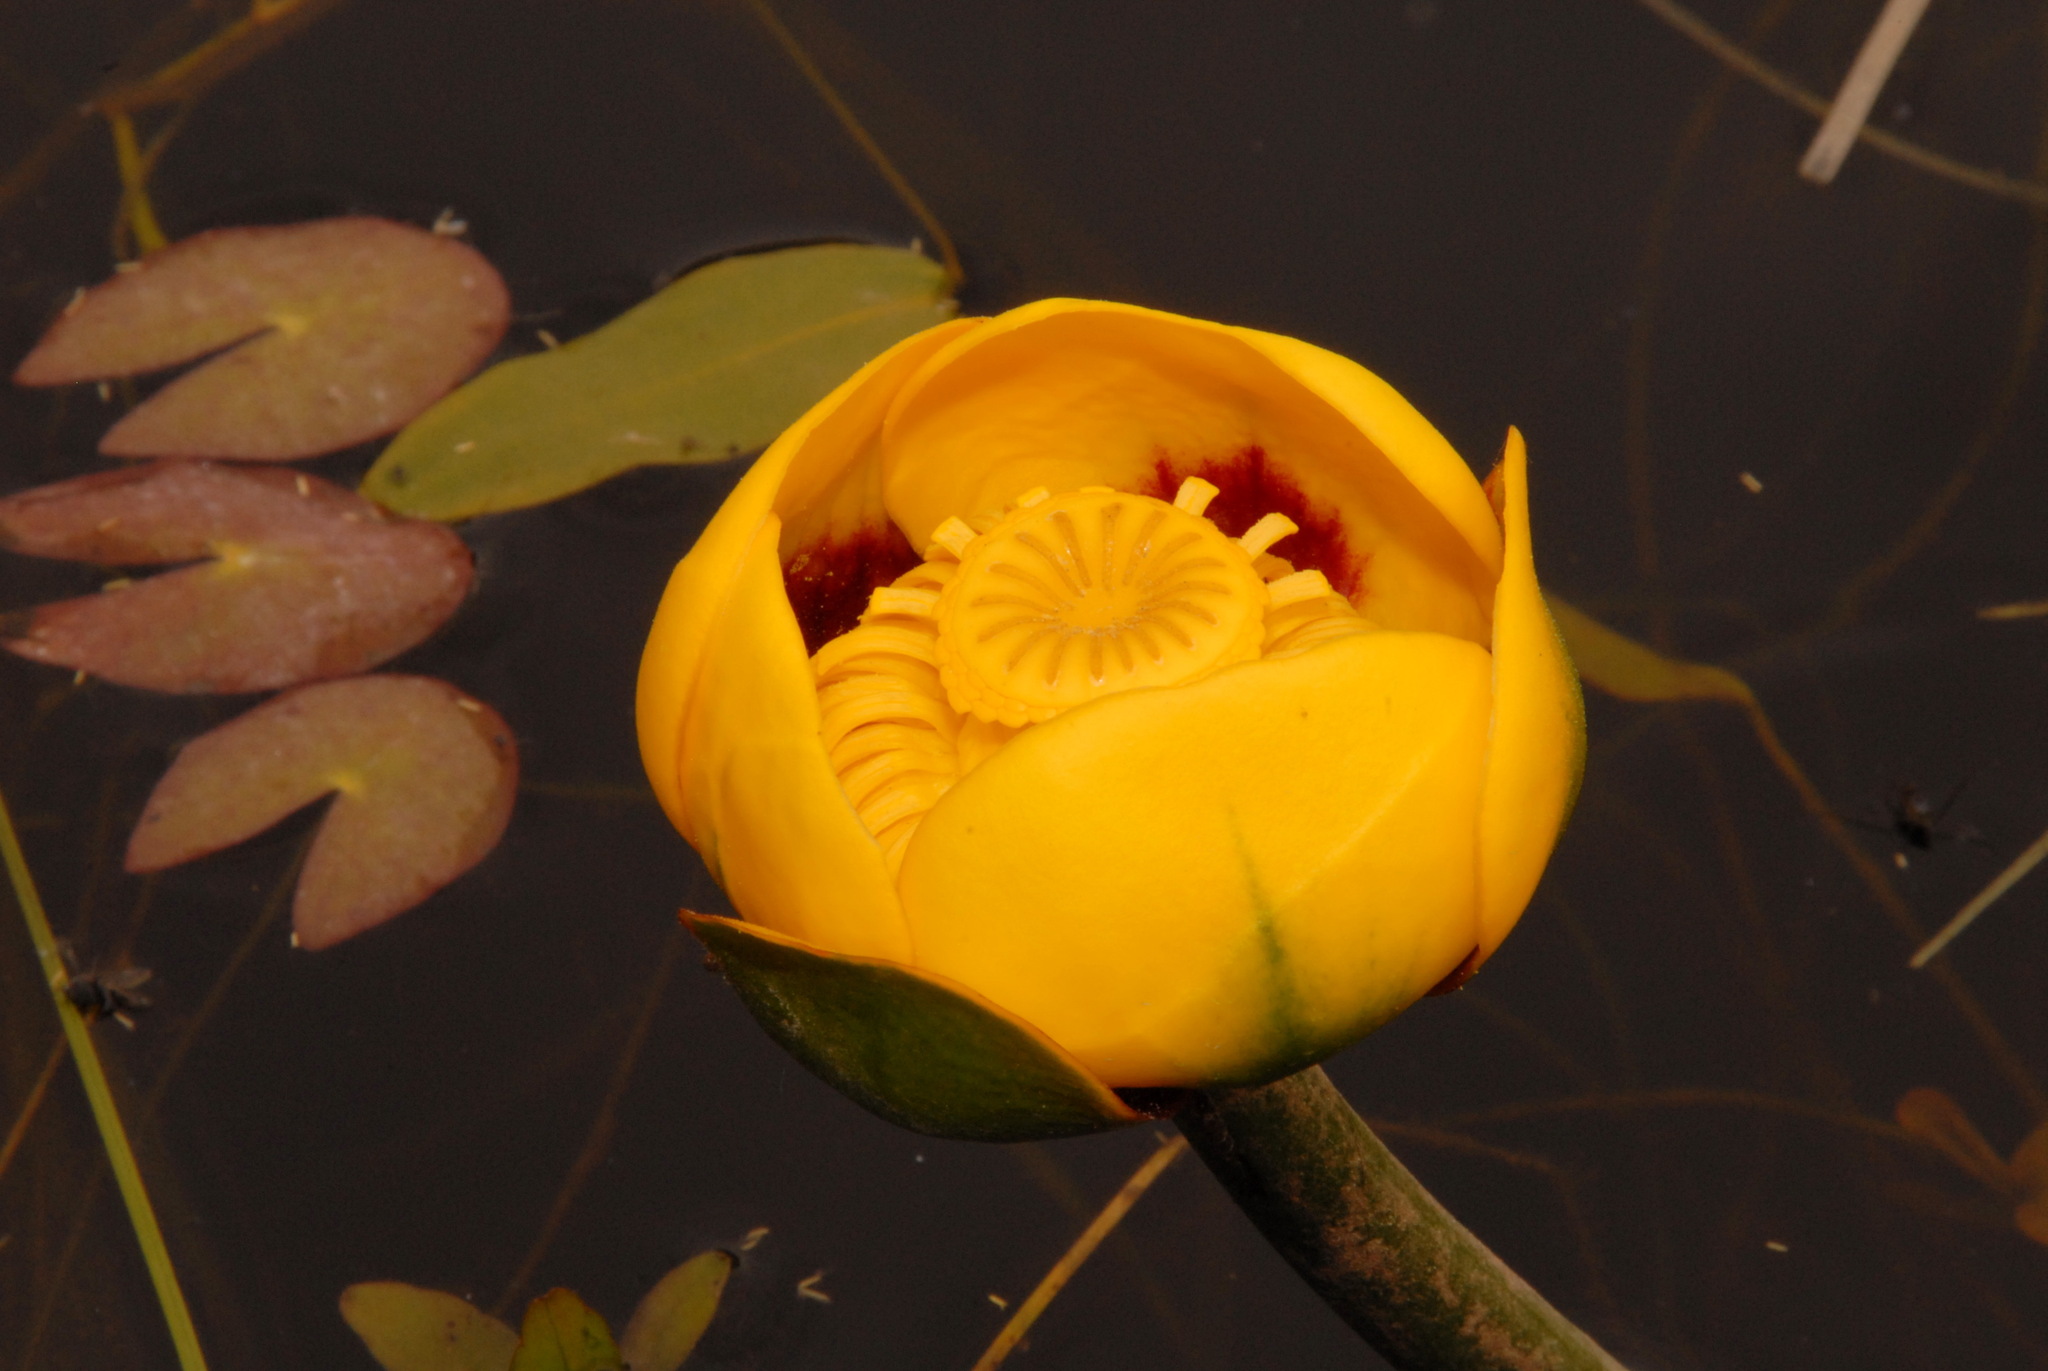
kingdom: Plantae
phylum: Tracheophyta
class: Magnoliopsida
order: Nymphaeales
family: Nymphaeaceae
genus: Nuphar
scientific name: Nuphar polysepala
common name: Rocky mountain cow-lily
